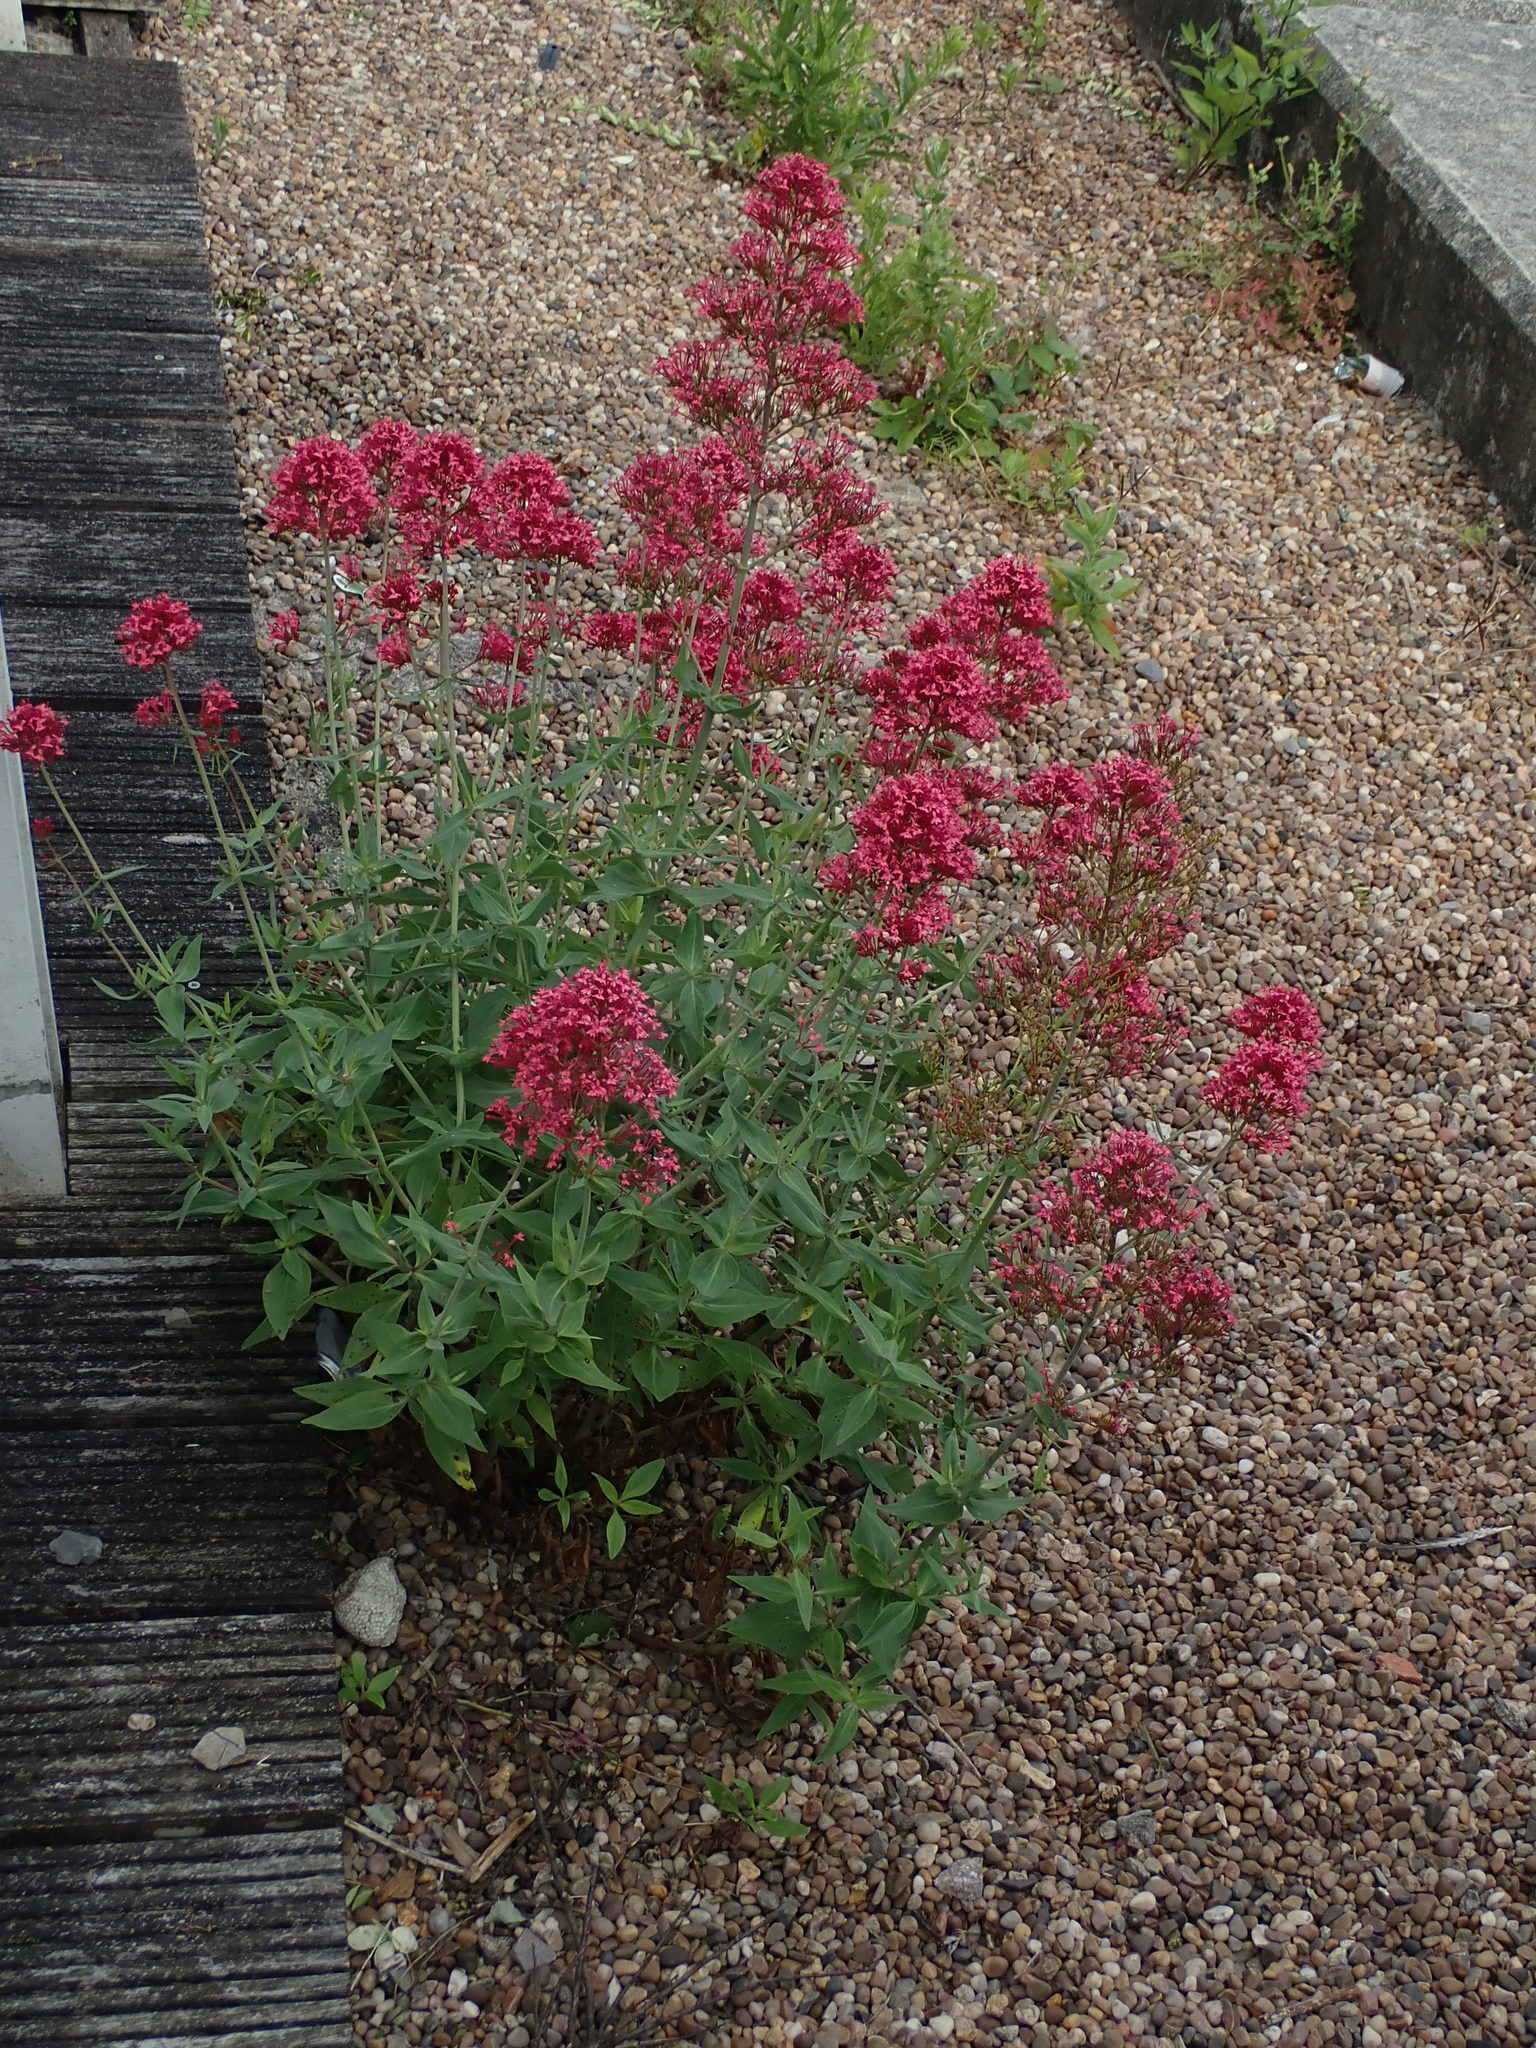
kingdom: Plantae
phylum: Tracheophyta
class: Magnoliopsida
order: Dipsacales
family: Caprifoliaceae
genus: Centranthus
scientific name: Centranthus ruber
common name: Red valerian
